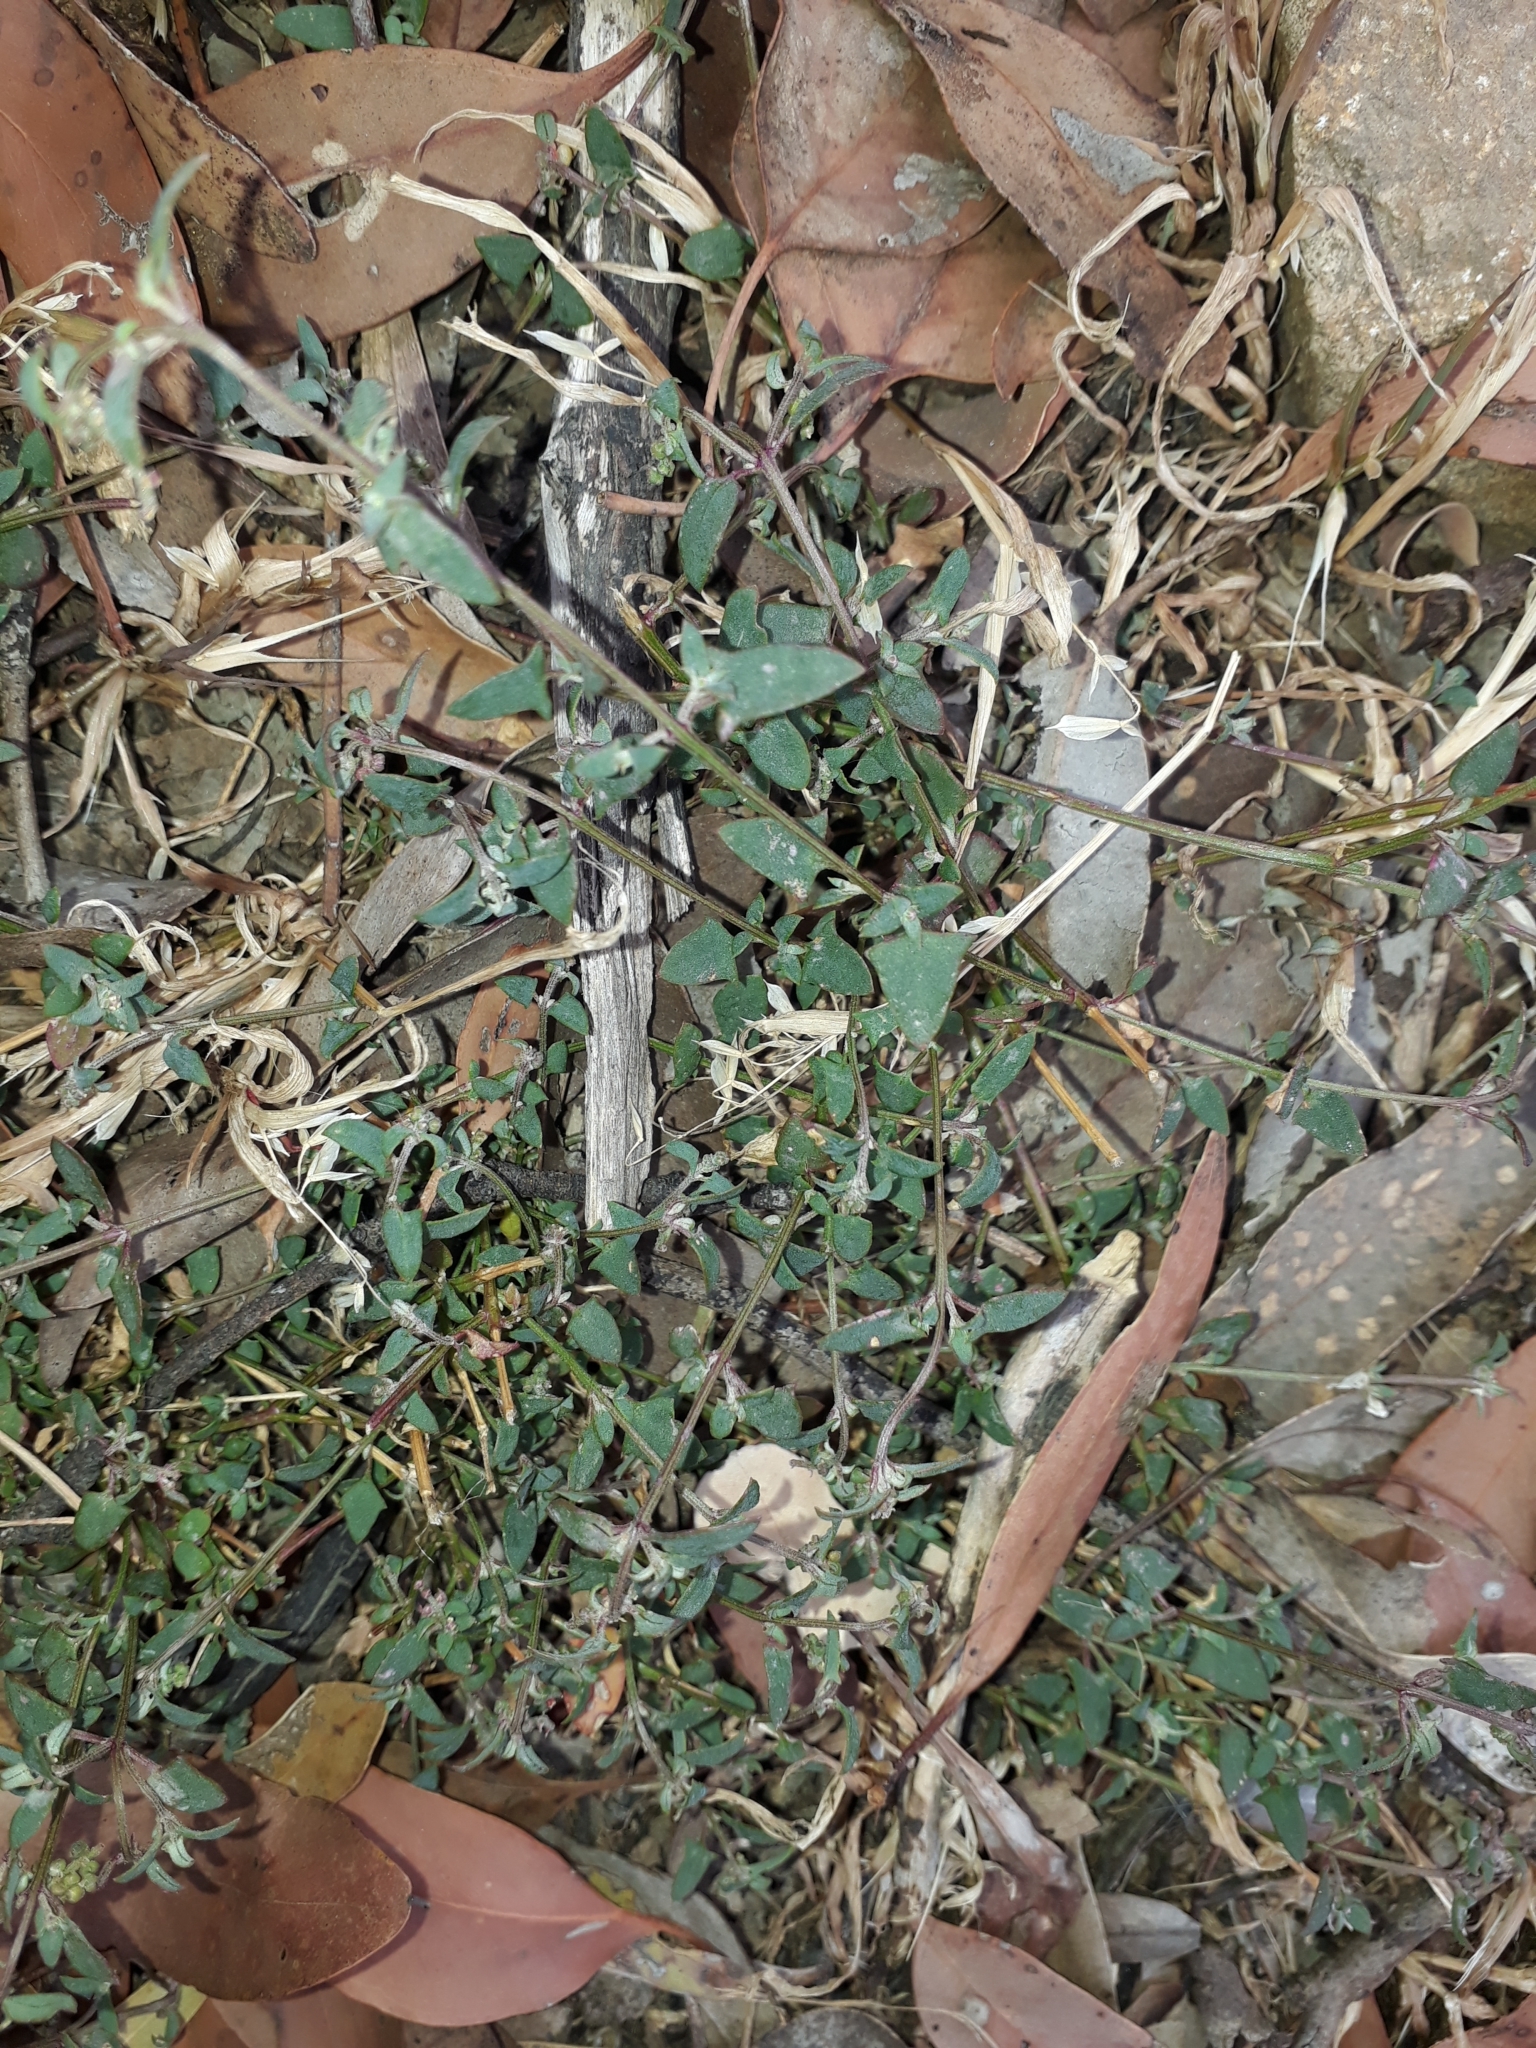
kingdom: Plantae
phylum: Tracheophyta
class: Magnoliopsida
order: Caryophyllales
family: Amaranthaceae
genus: Chenopodium
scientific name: Chenopodium nutans
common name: Climbing-saltbush
